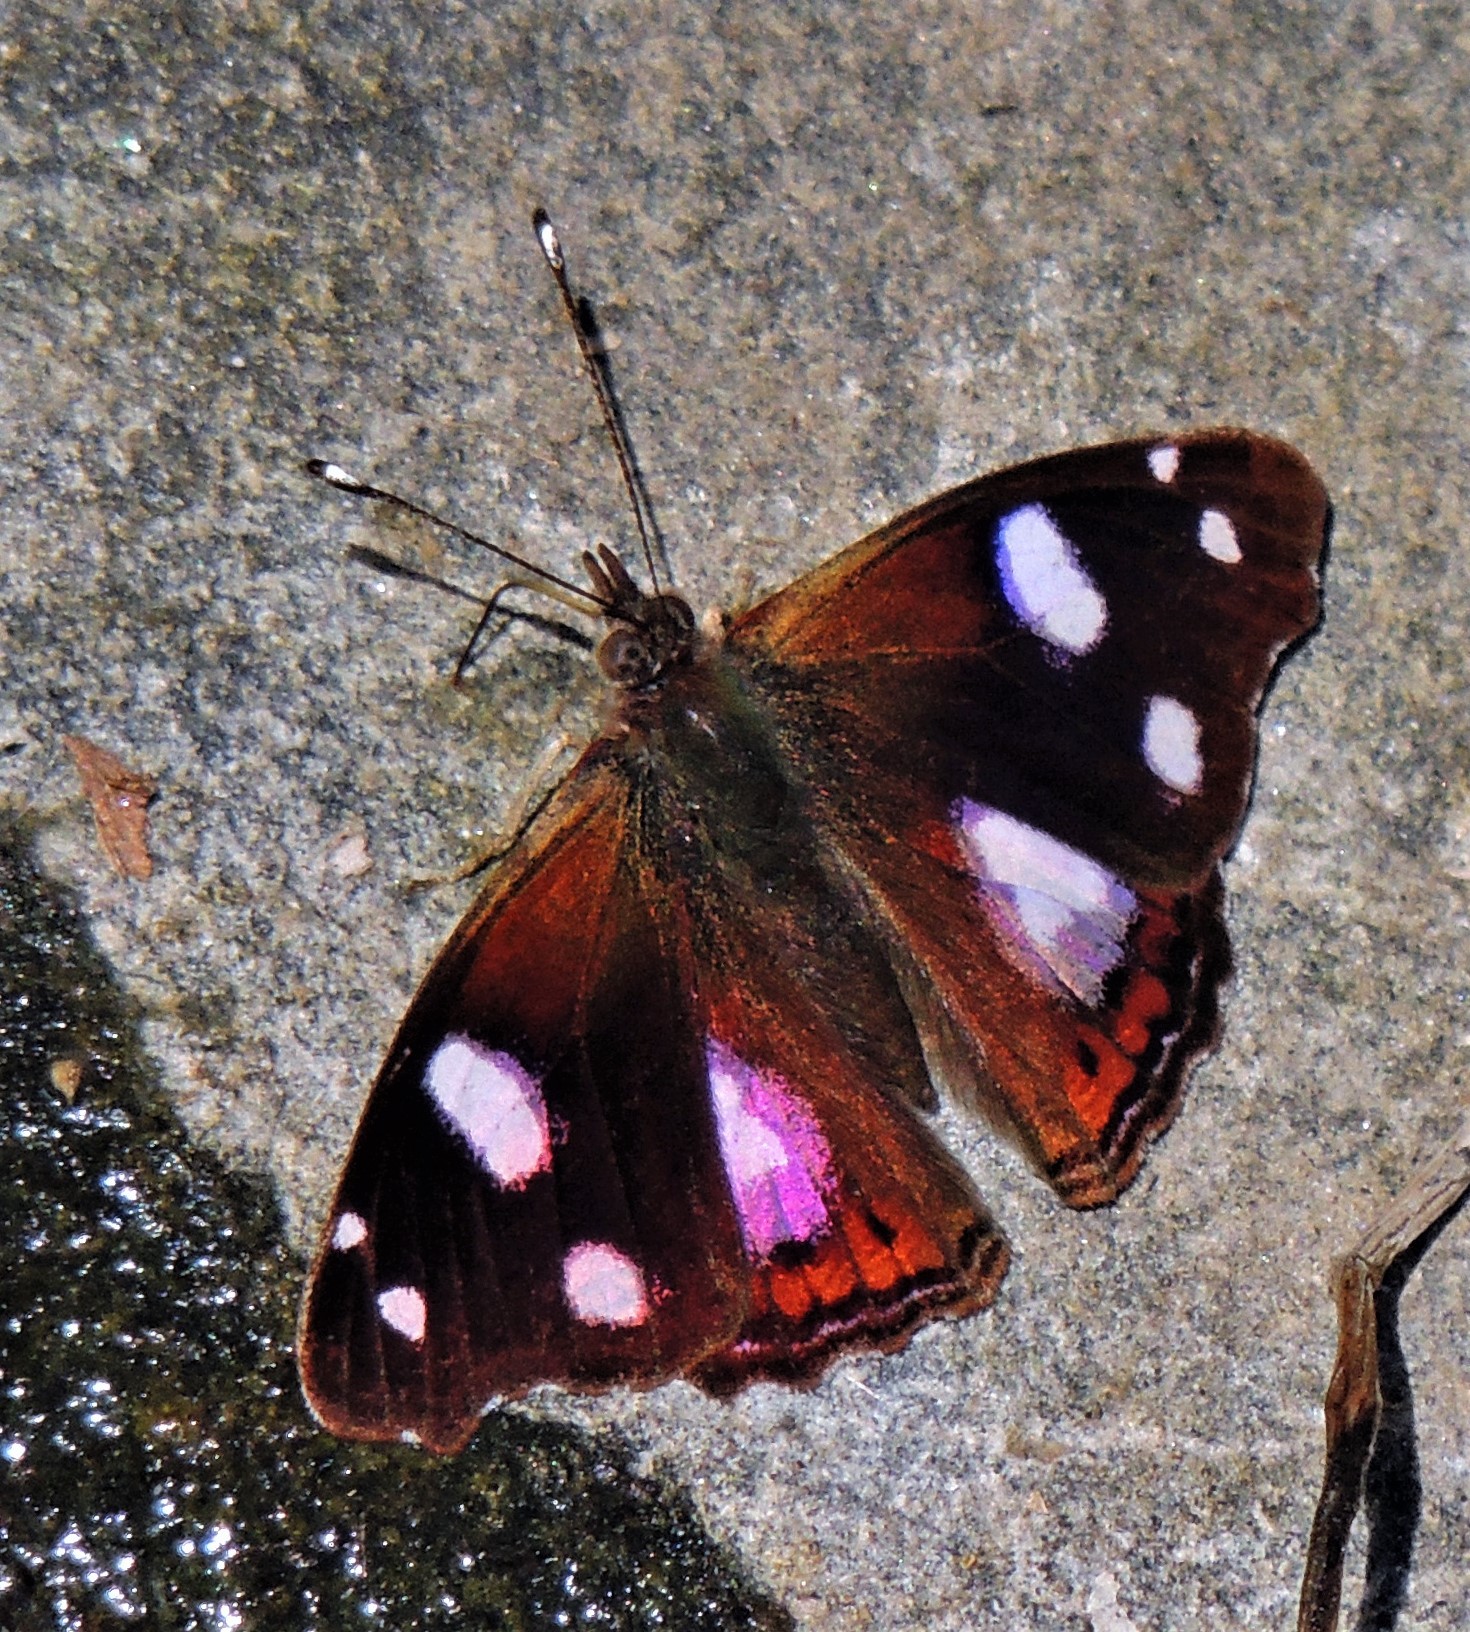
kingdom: Animalia
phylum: Arthropoda
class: Insecta
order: Lepidoptera
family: Nymphalidae
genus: Cybdelis
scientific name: Cybdelis
